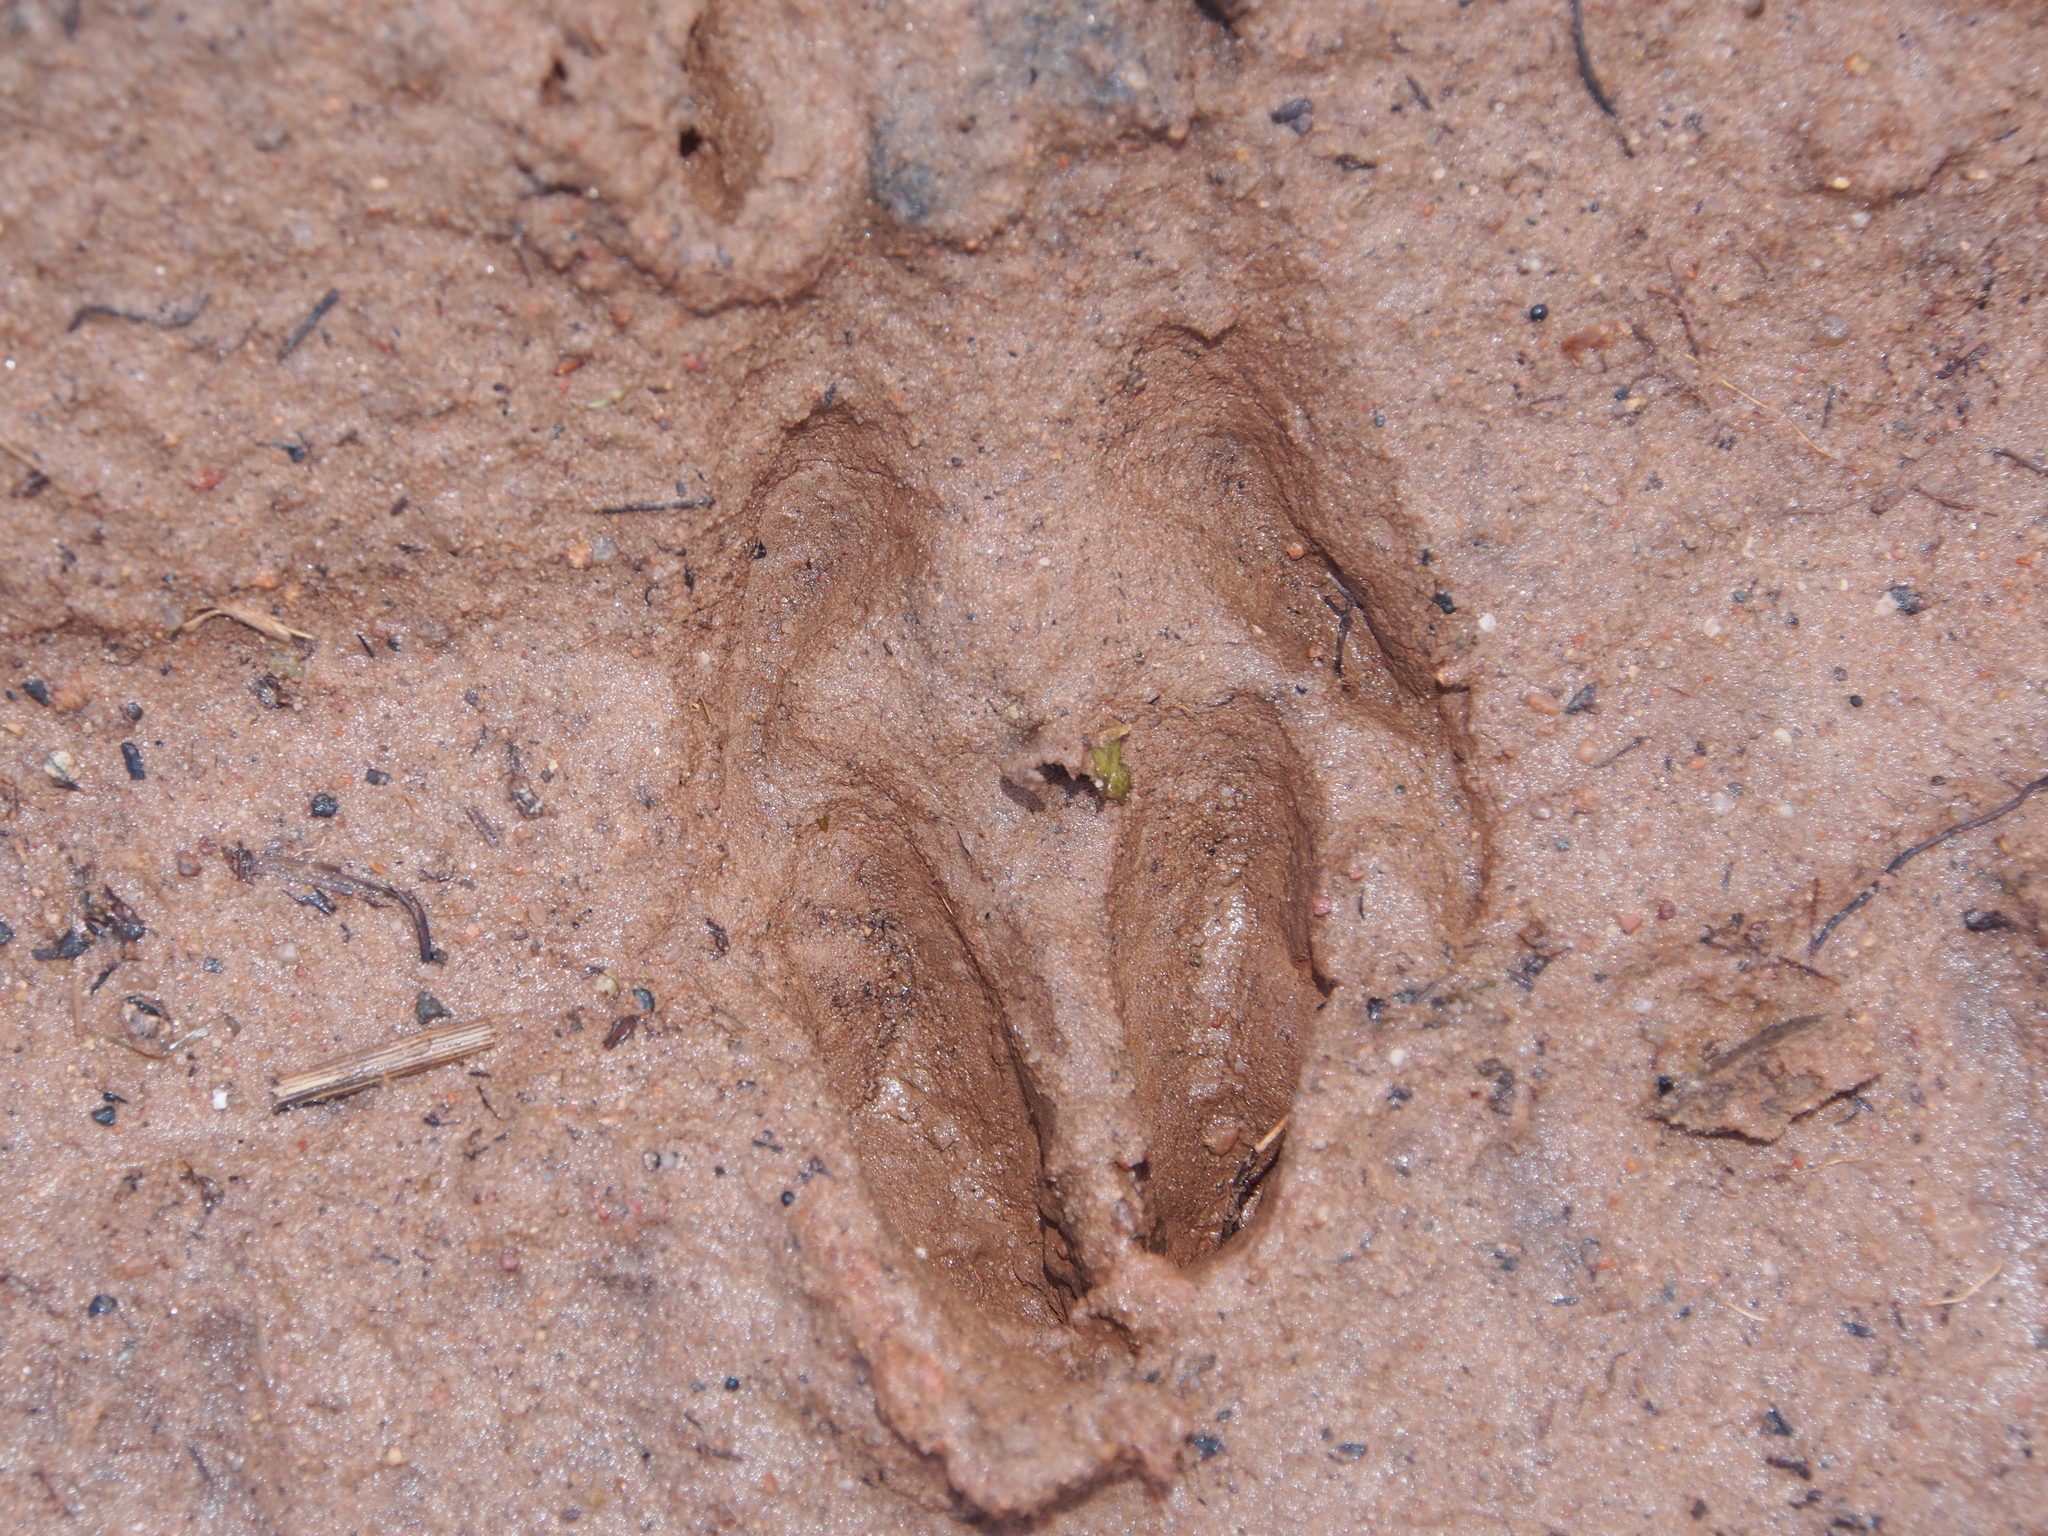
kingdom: Animalia
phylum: Chordata
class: Mammalia
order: Artiodactyla
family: Suidae
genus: Sus
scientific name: Sus scrofa
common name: Wild boar
